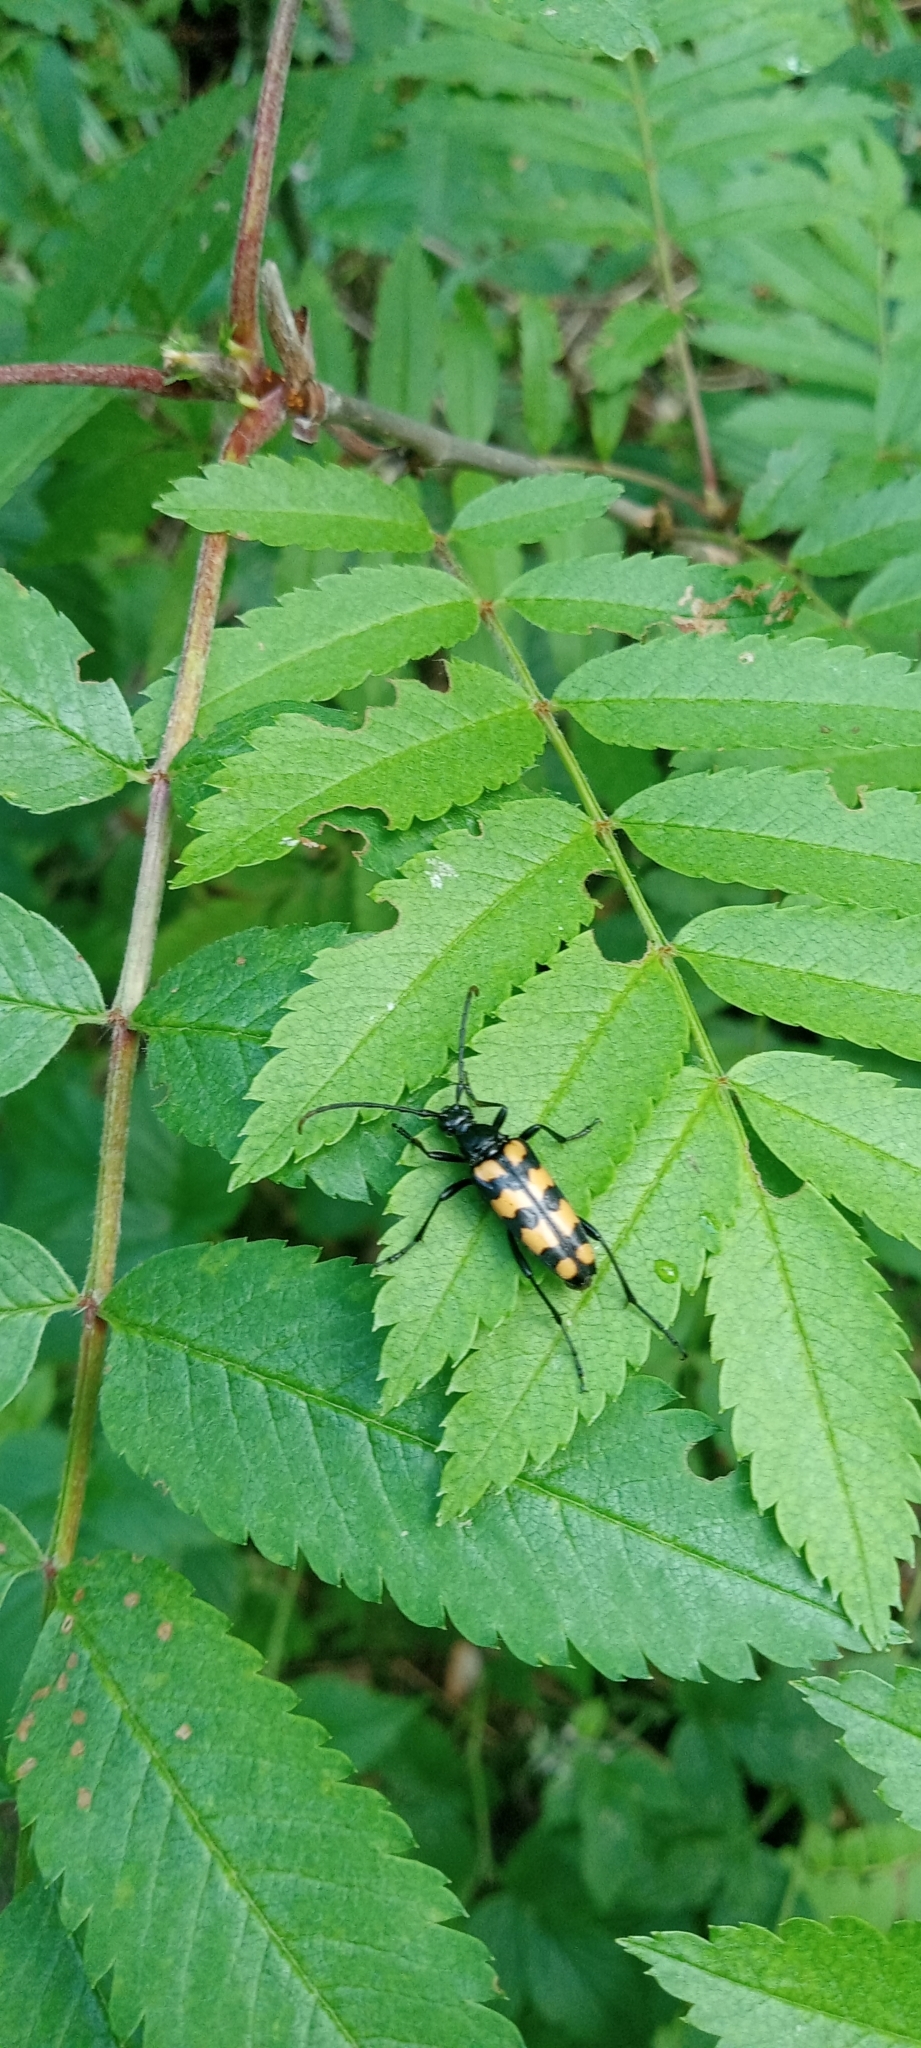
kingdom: Animalia
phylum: Arthropoda
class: Insecta
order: Coleoptera
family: Cerambycidae
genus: Leptura
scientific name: Leptura quadrifasciata
